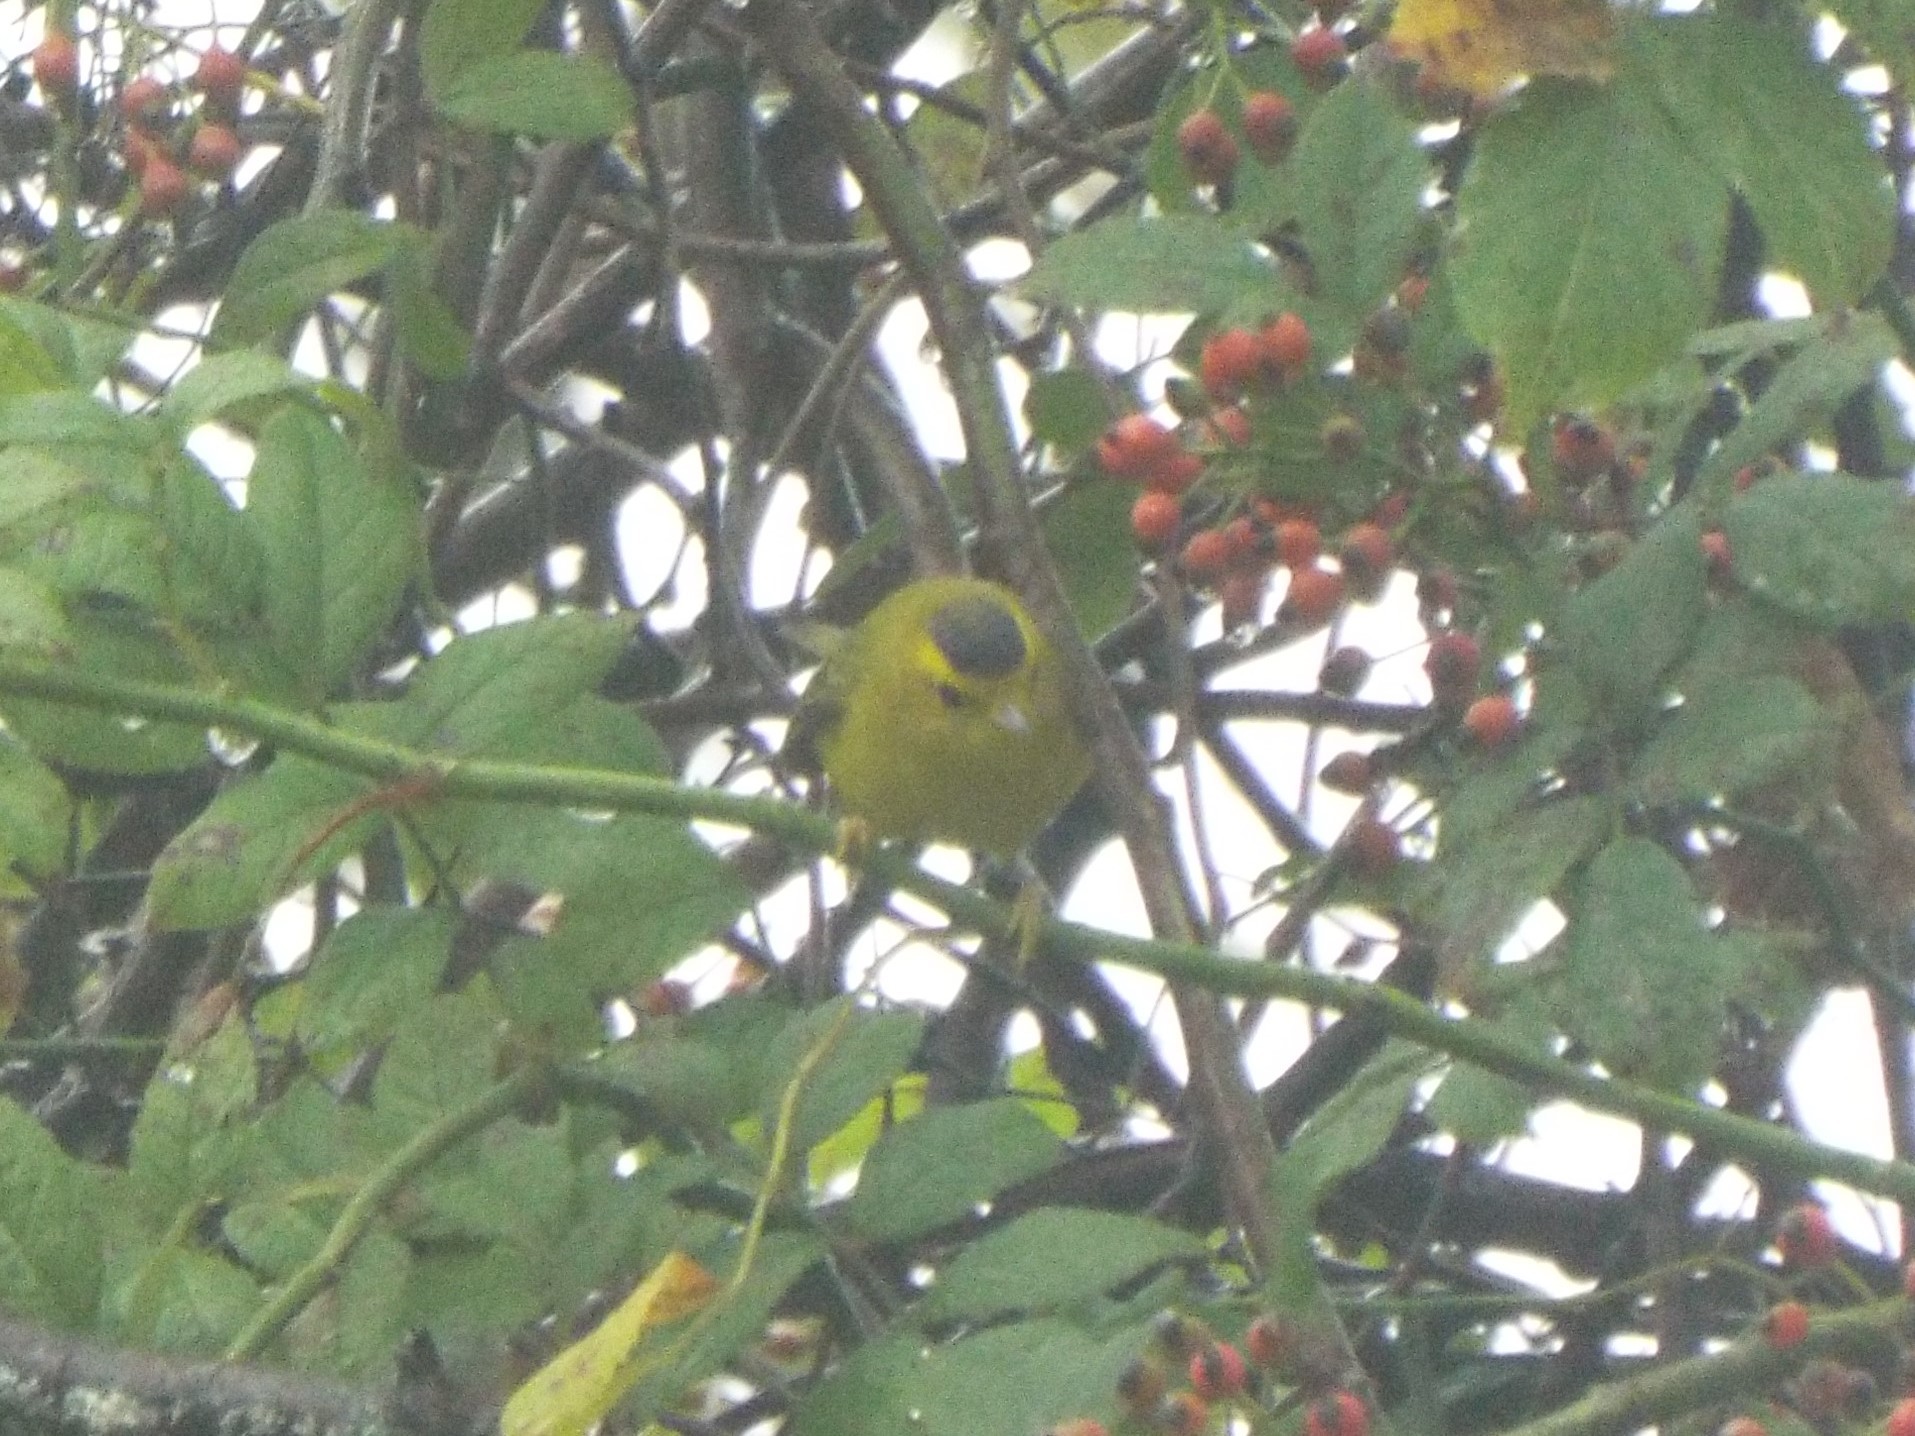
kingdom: Animalia
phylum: Chordata
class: Aves
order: Passeriformes
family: Parulidae
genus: Cardellina
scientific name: Cardellina pusilla
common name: Wilson's warbler
